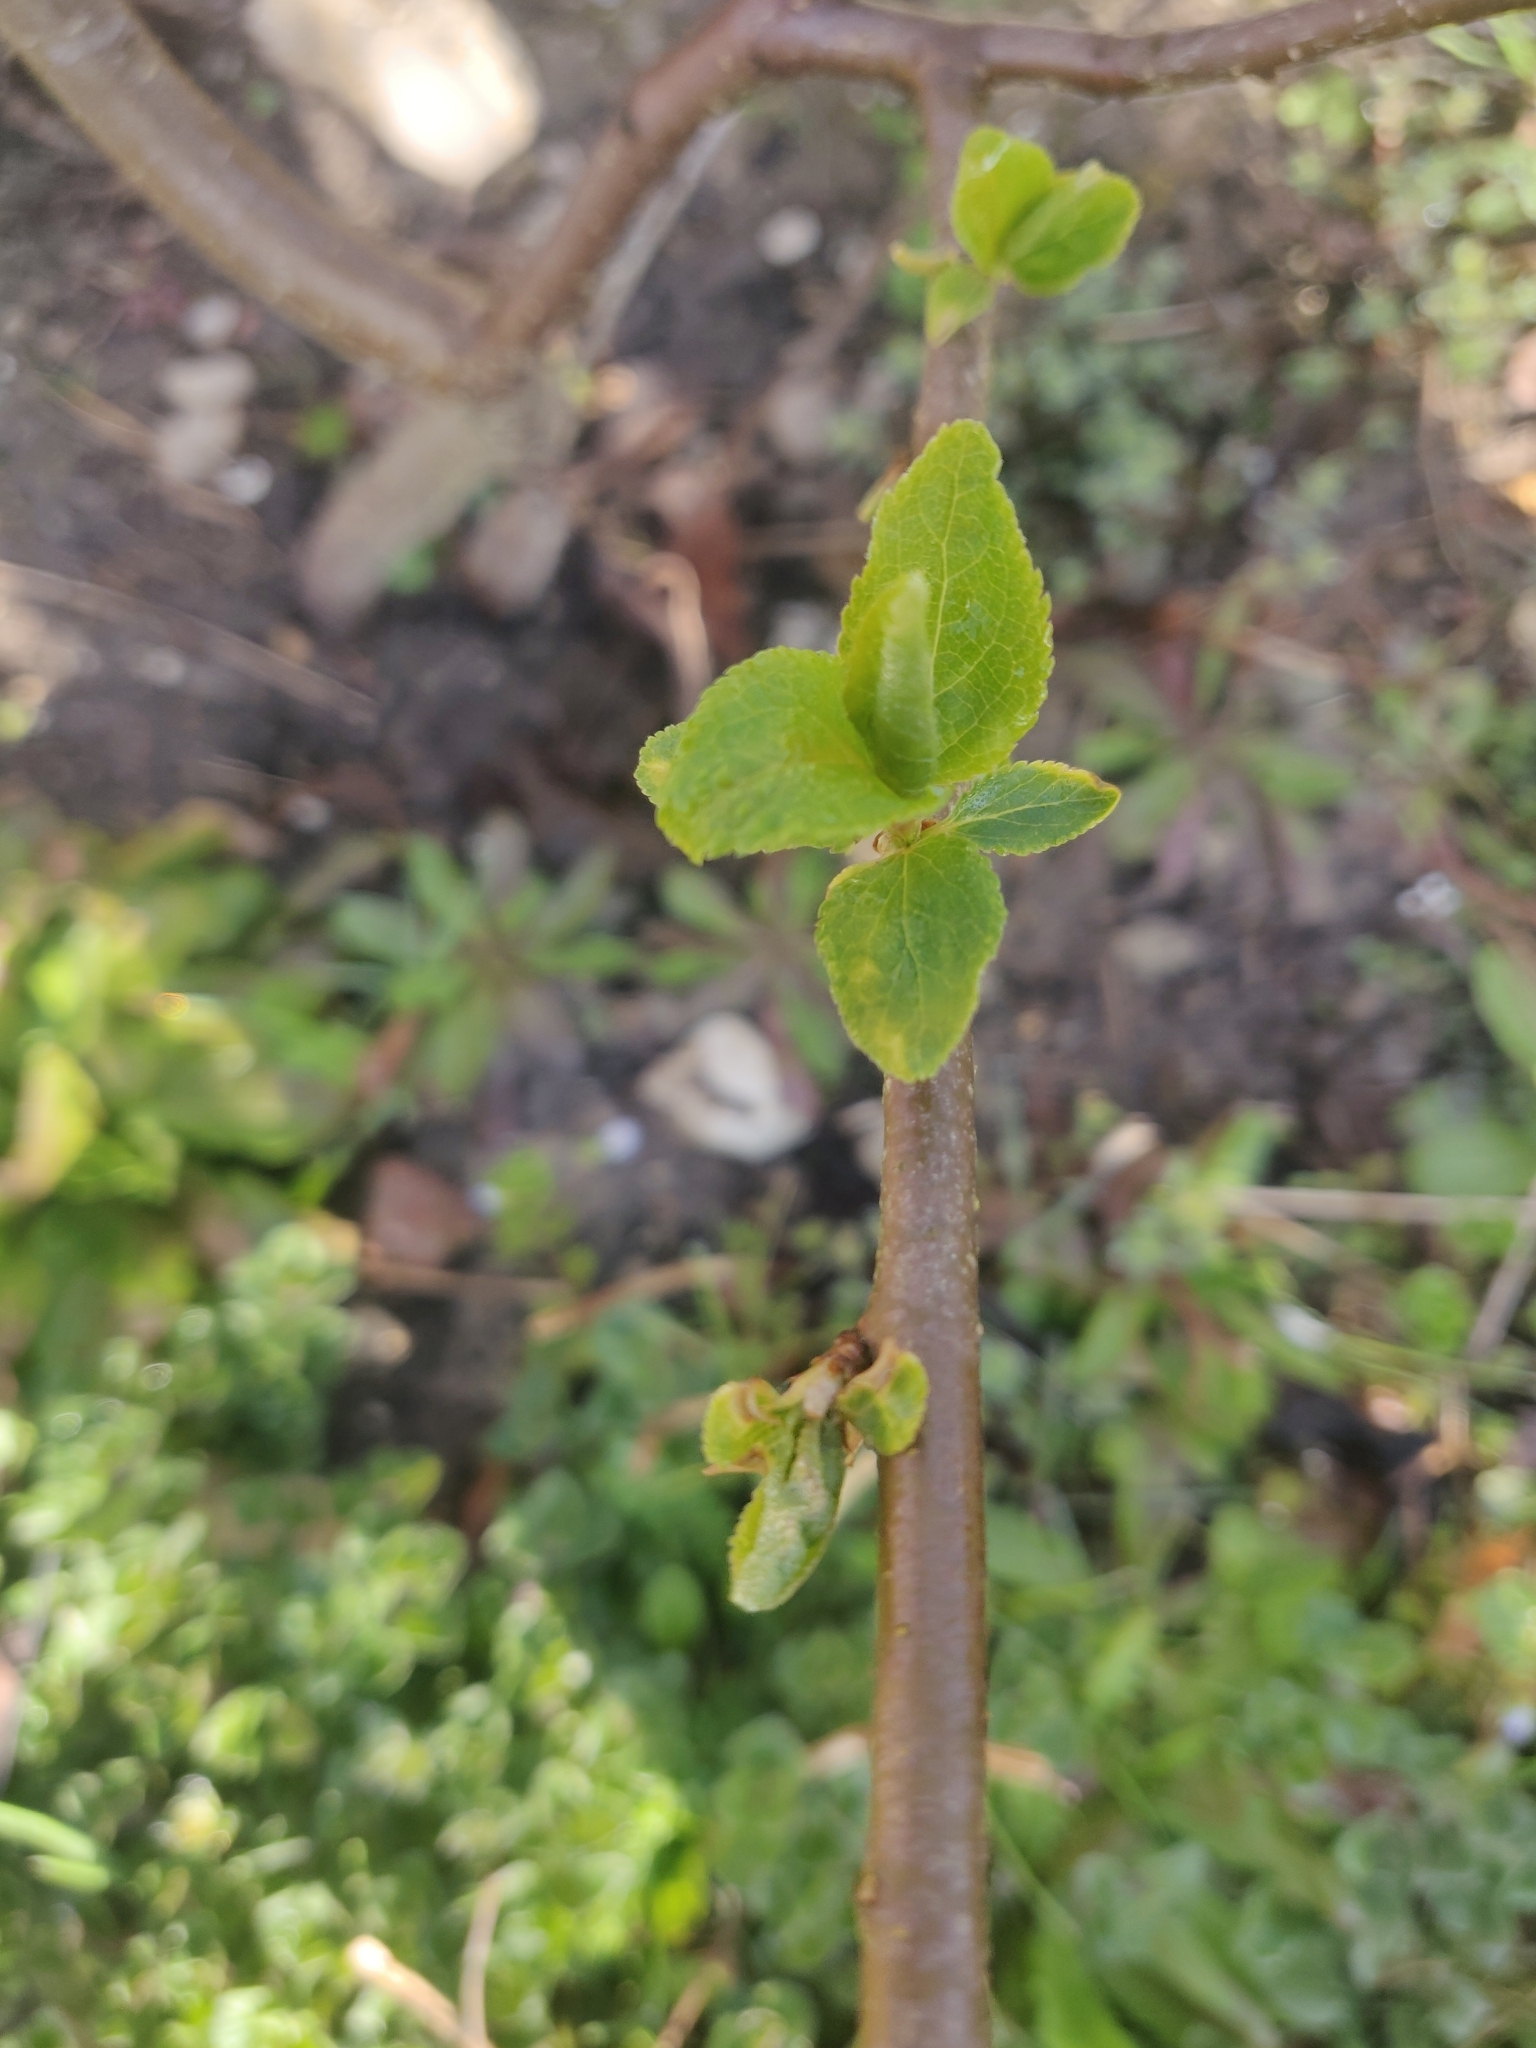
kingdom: Plantae
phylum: Tracheophyta
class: Magnoliopsida
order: Rosales
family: Rosaceae
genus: Prunus
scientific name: Prunus cerasifera
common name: Cherry plum
